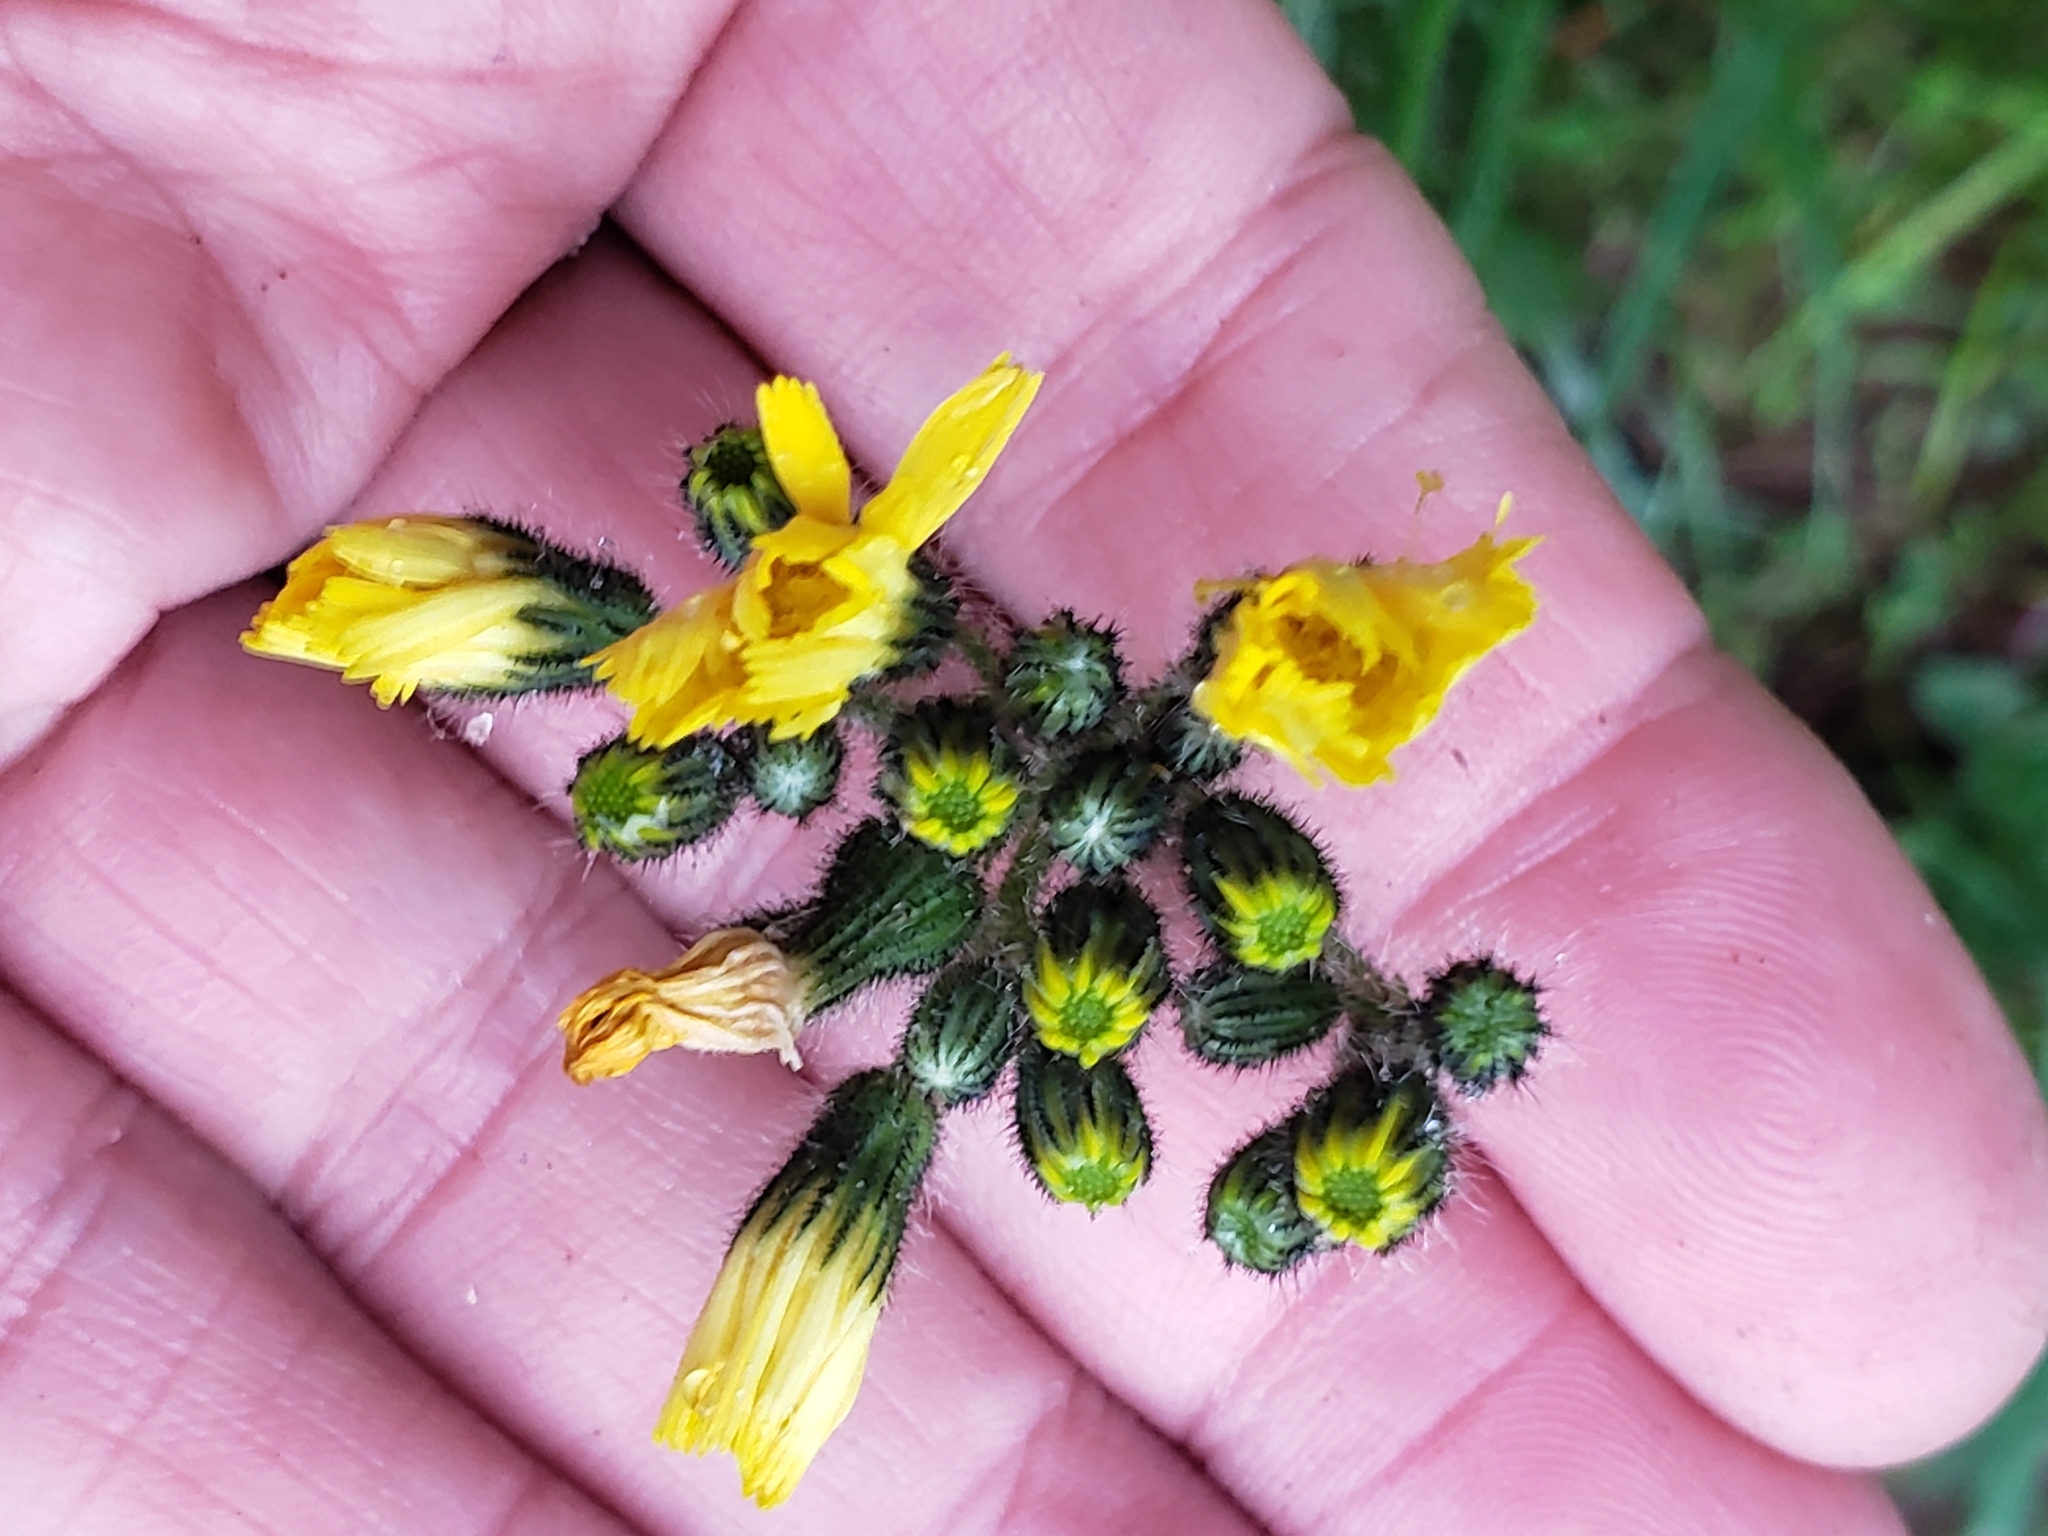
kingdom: Plantae
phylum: Tracheophyta
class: Magnoliopsida
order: Asterales
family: Asteraceae
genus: Pilosella
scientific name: Pilosella caespitosa
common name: Yellow fox-and-cubs
